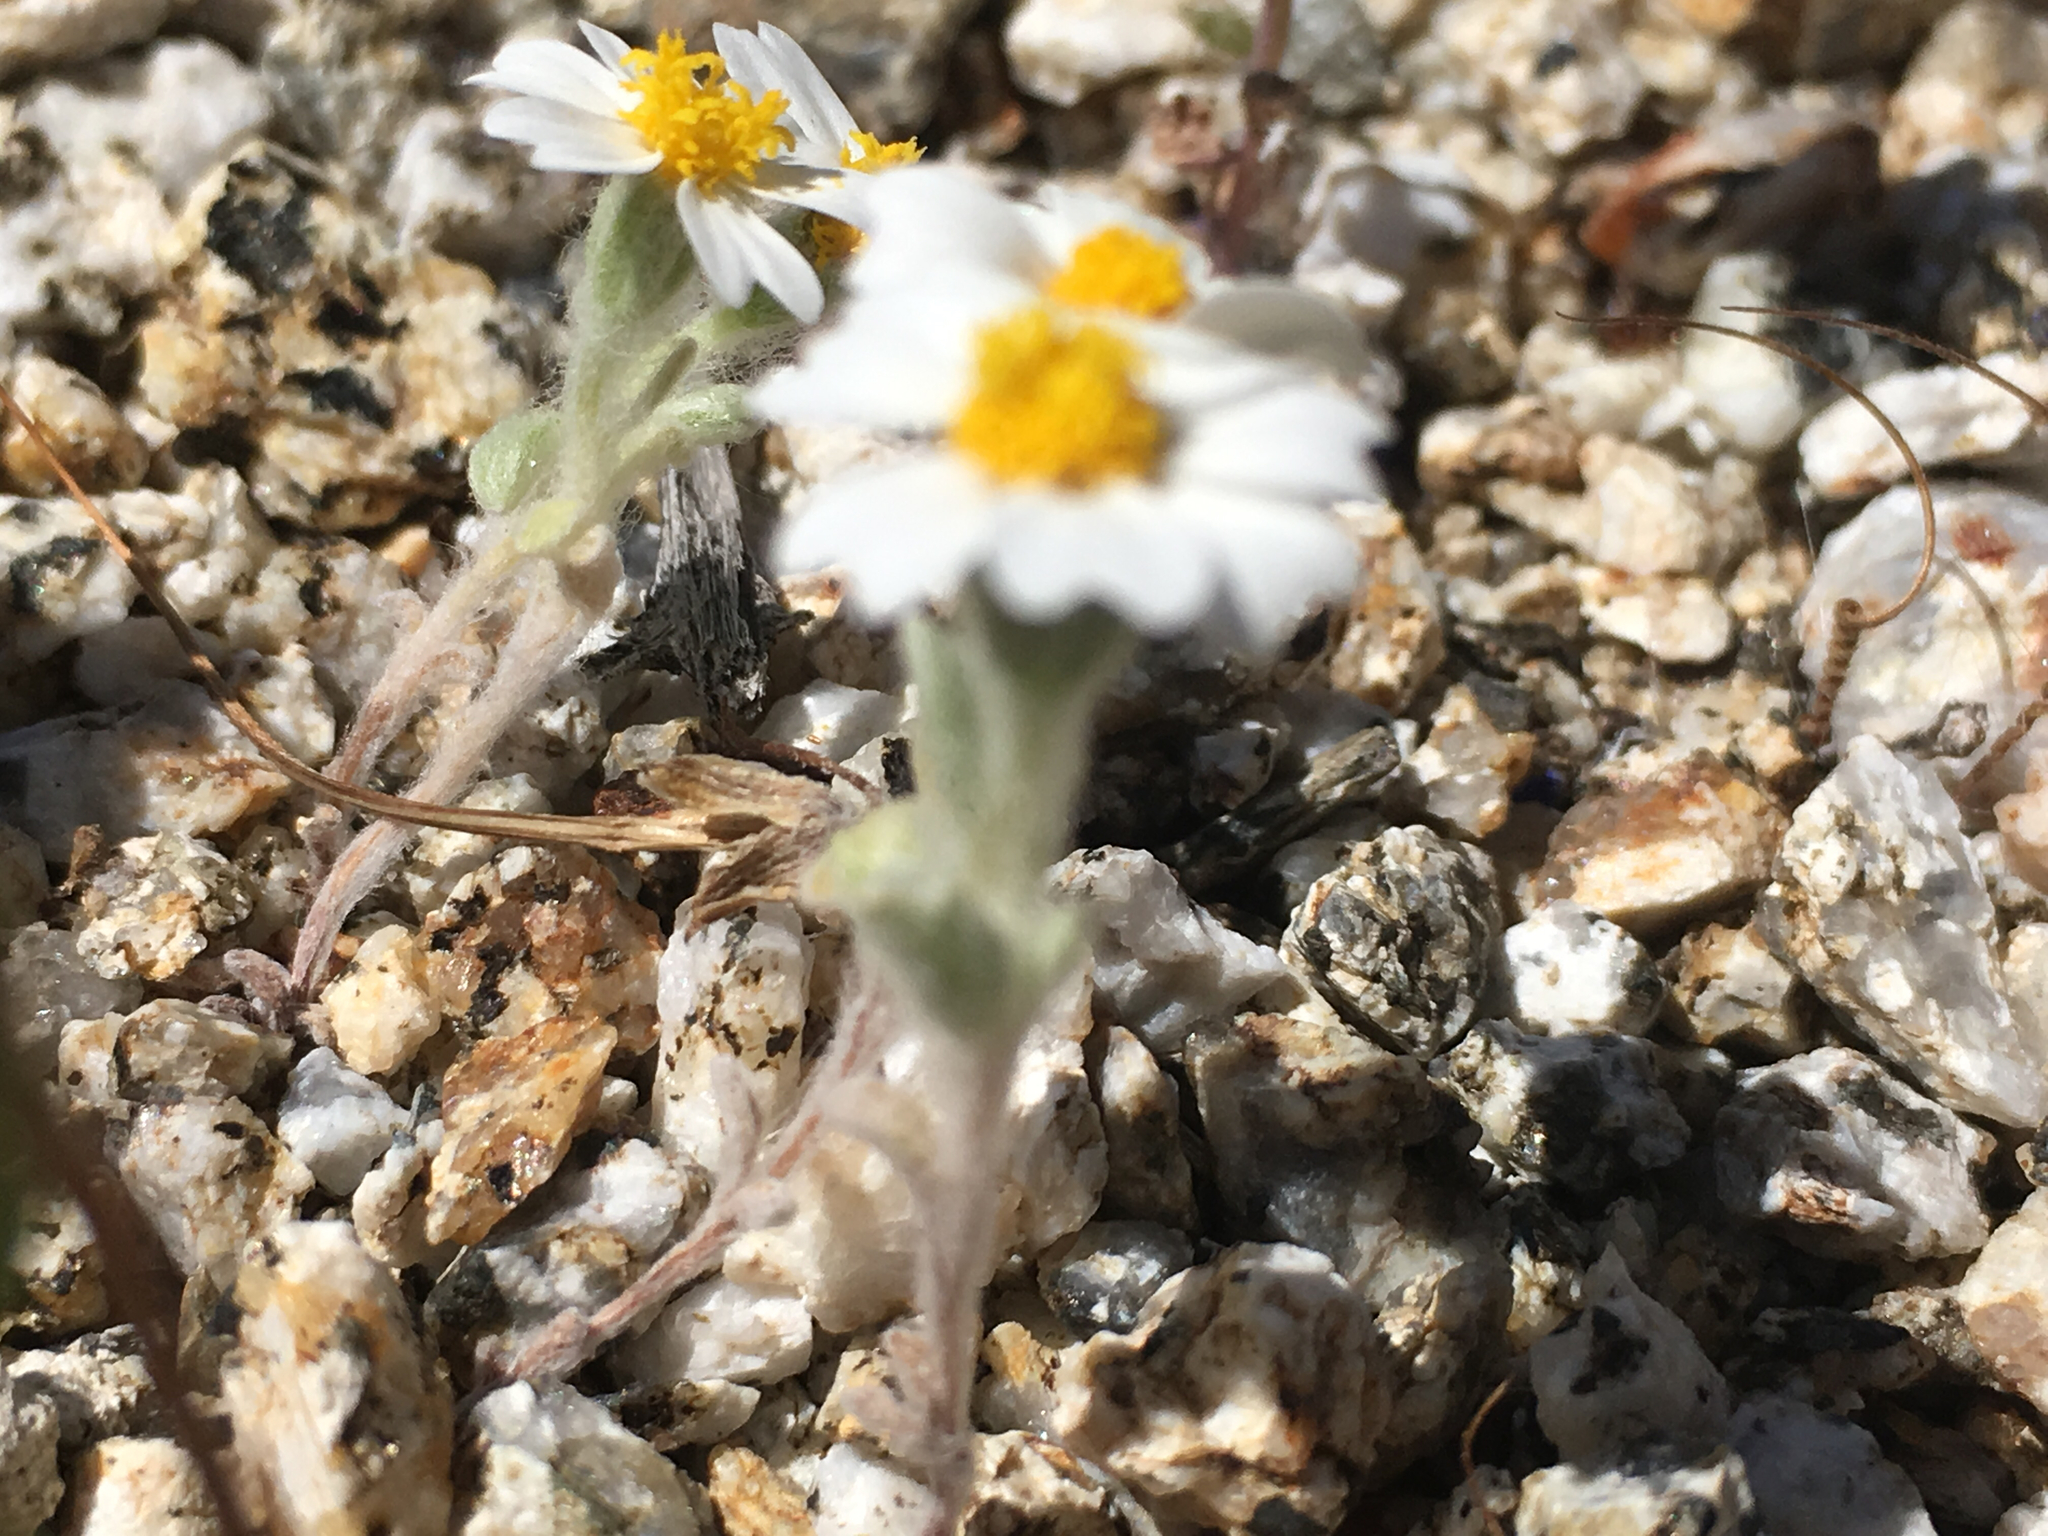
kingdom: Plantae
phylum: Tracheophyta
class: Magnoliopsida
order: Asterales
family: Asteraceae
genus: Eriophyllum
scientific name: Eriophyllum wallacei
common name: Wallace's woolly daisy
